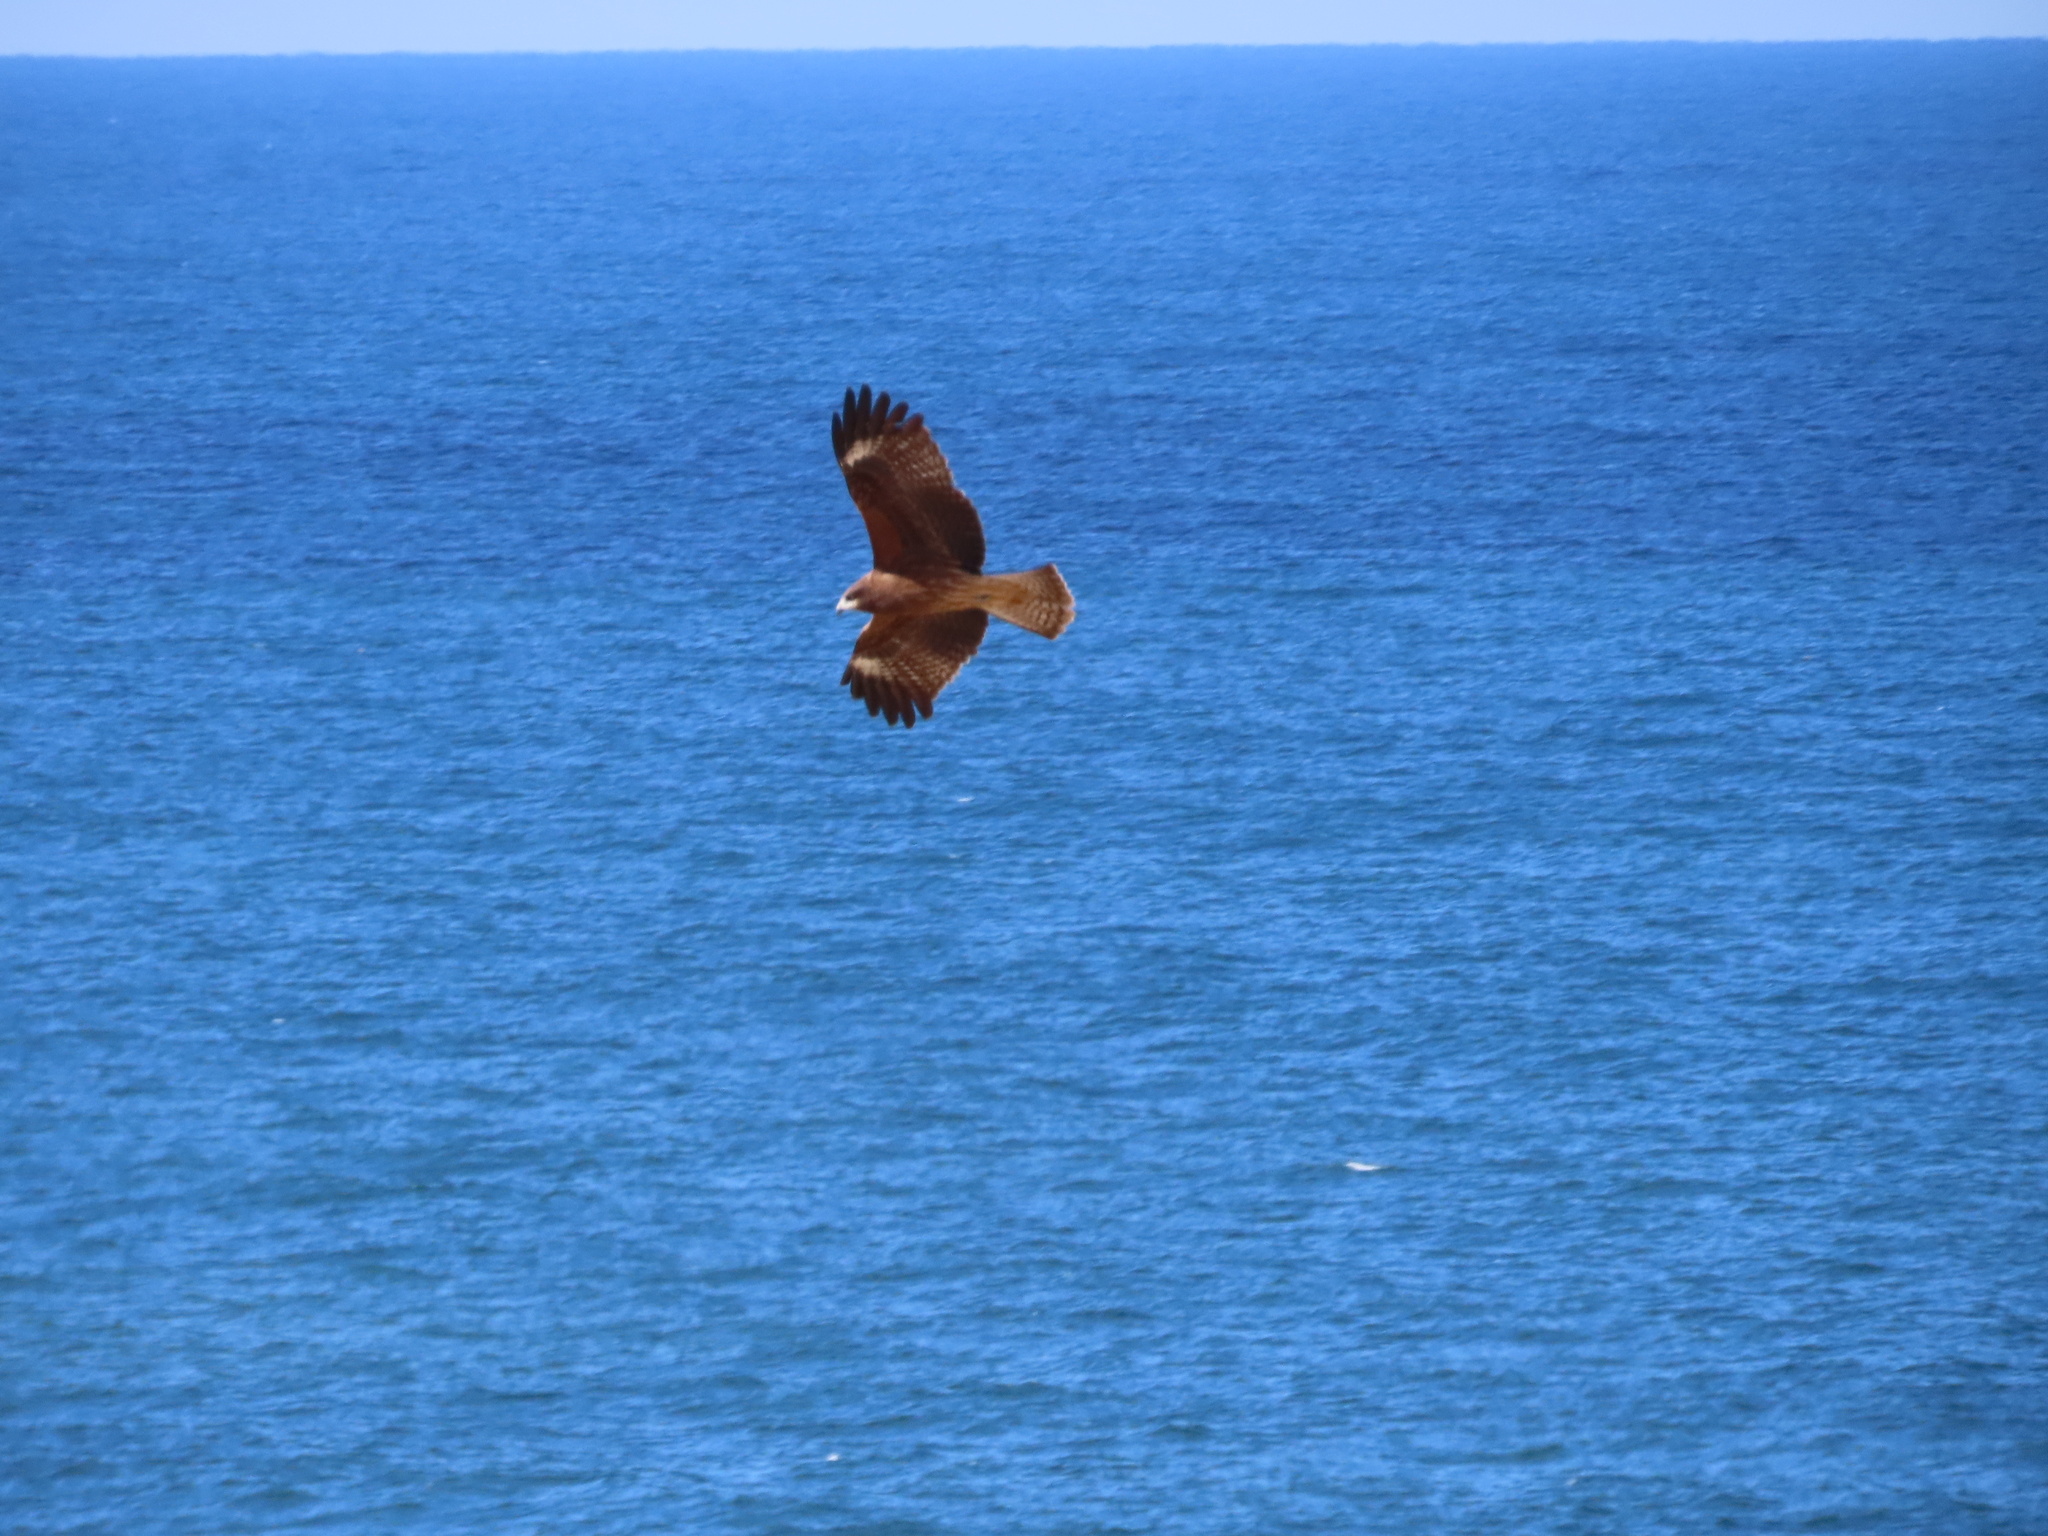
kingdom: Animalia
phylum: Chordata
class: Aves
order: Accipitriformes
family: Accipitridae
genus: Milvus
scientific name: Milvus migrans
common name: Black kite
